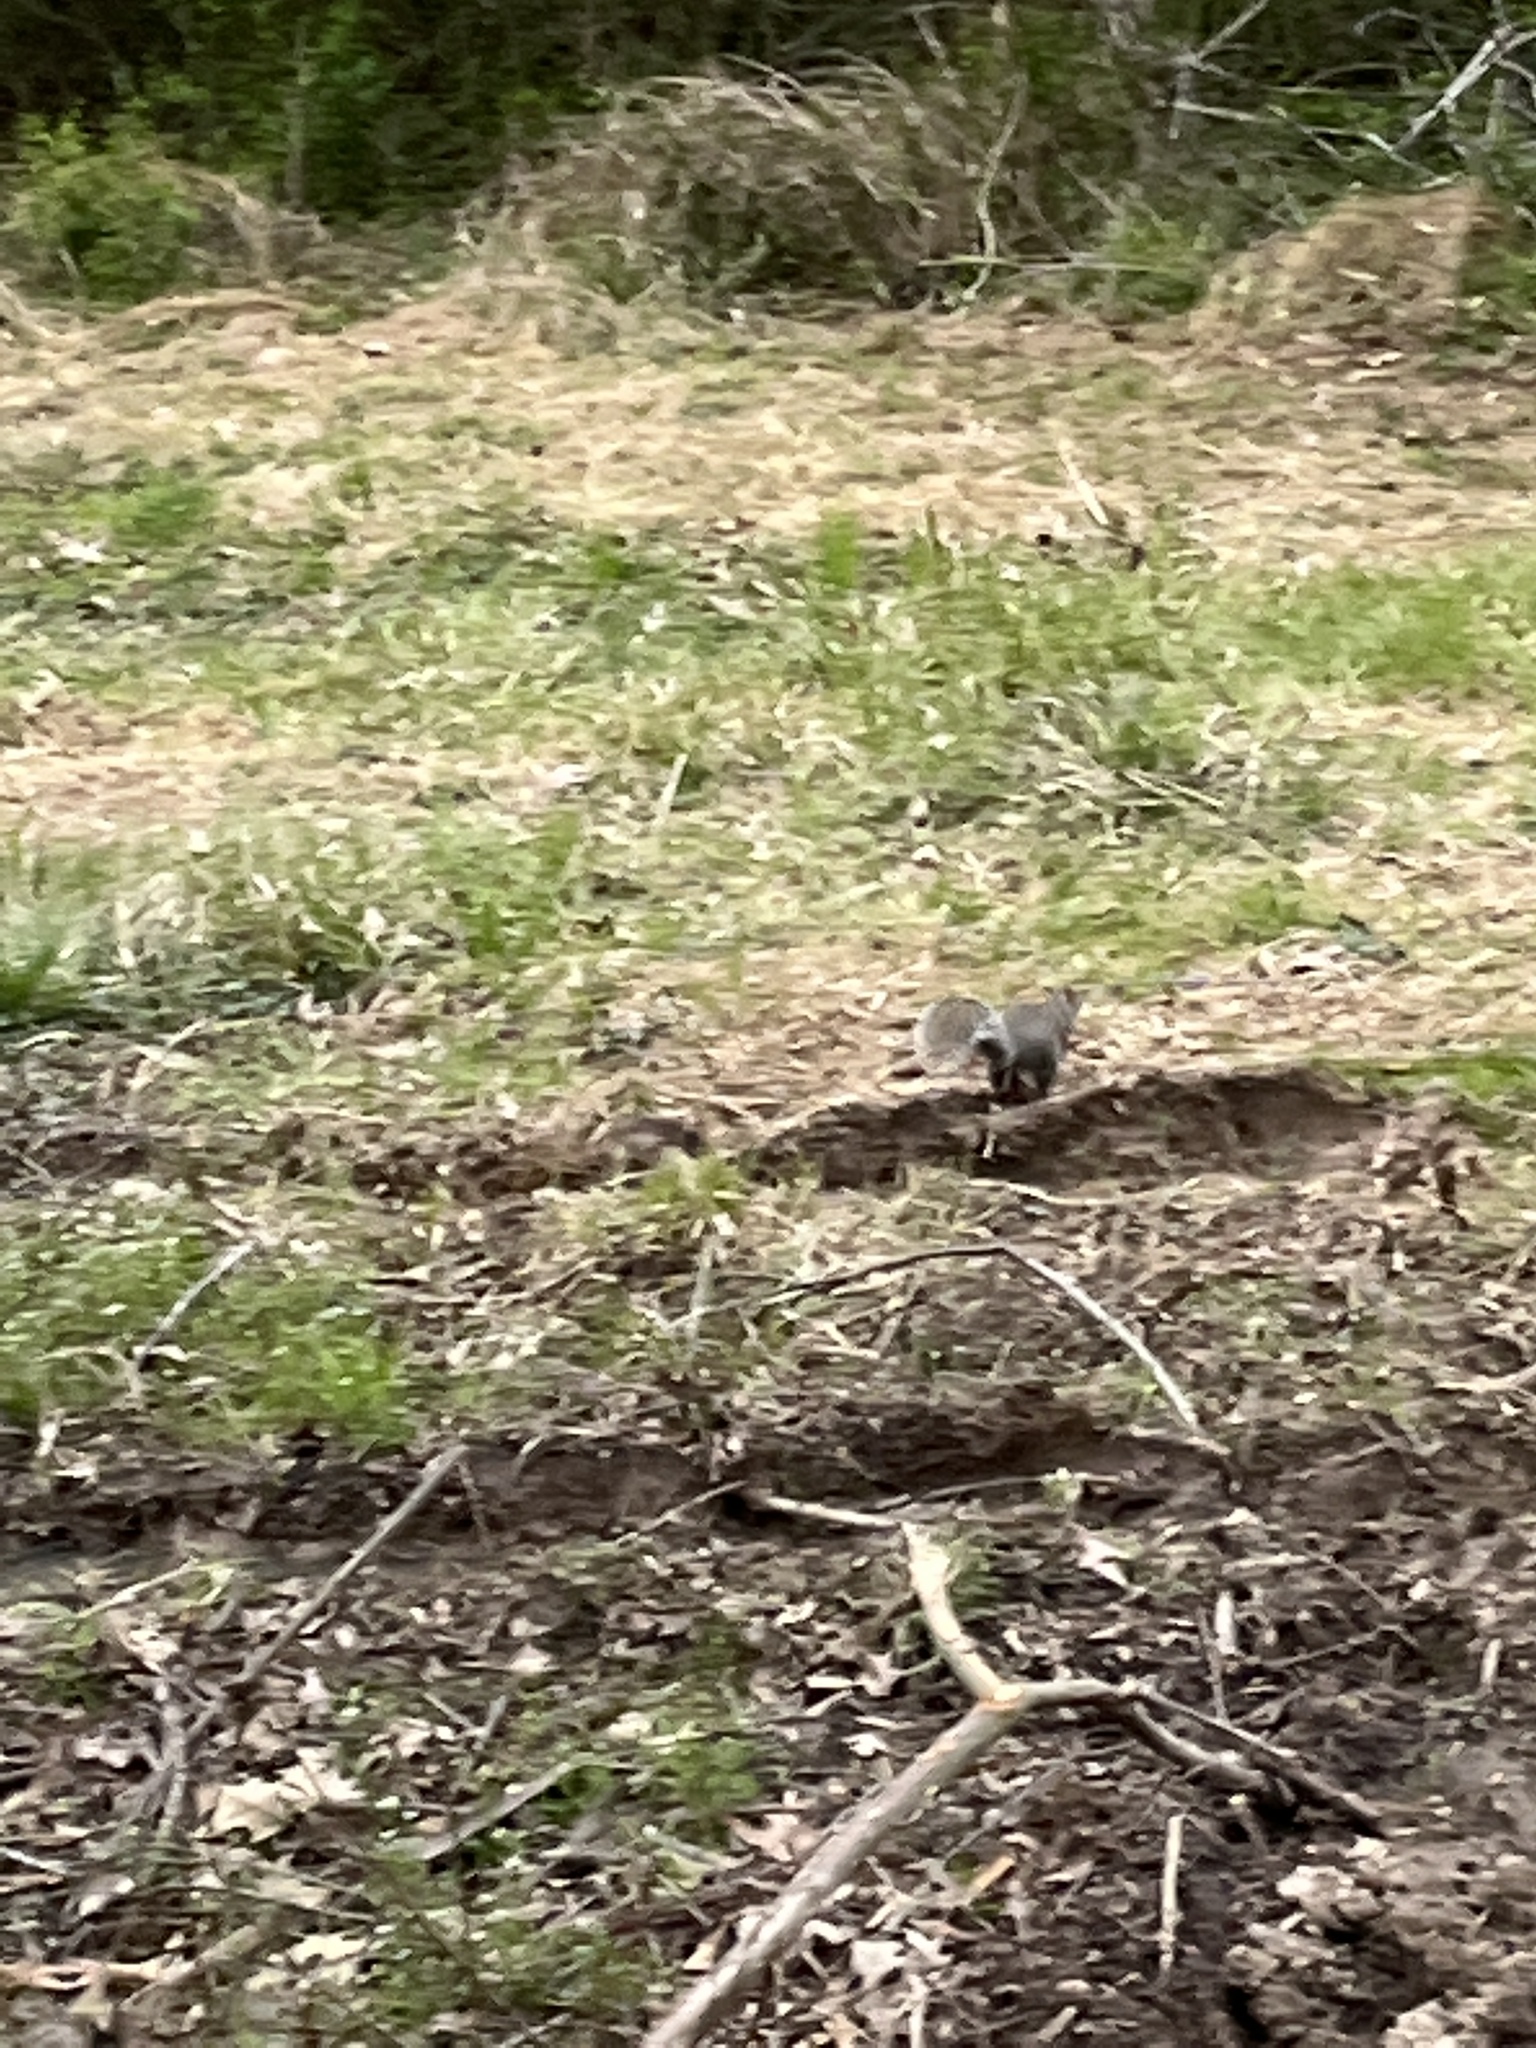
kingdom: Animalia
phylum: Chordata
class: Mammalia
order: Rodentia
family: Sciuridae
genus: Sciurus
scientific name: Sciurus carolinensis
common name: Eastern gray squirrel
